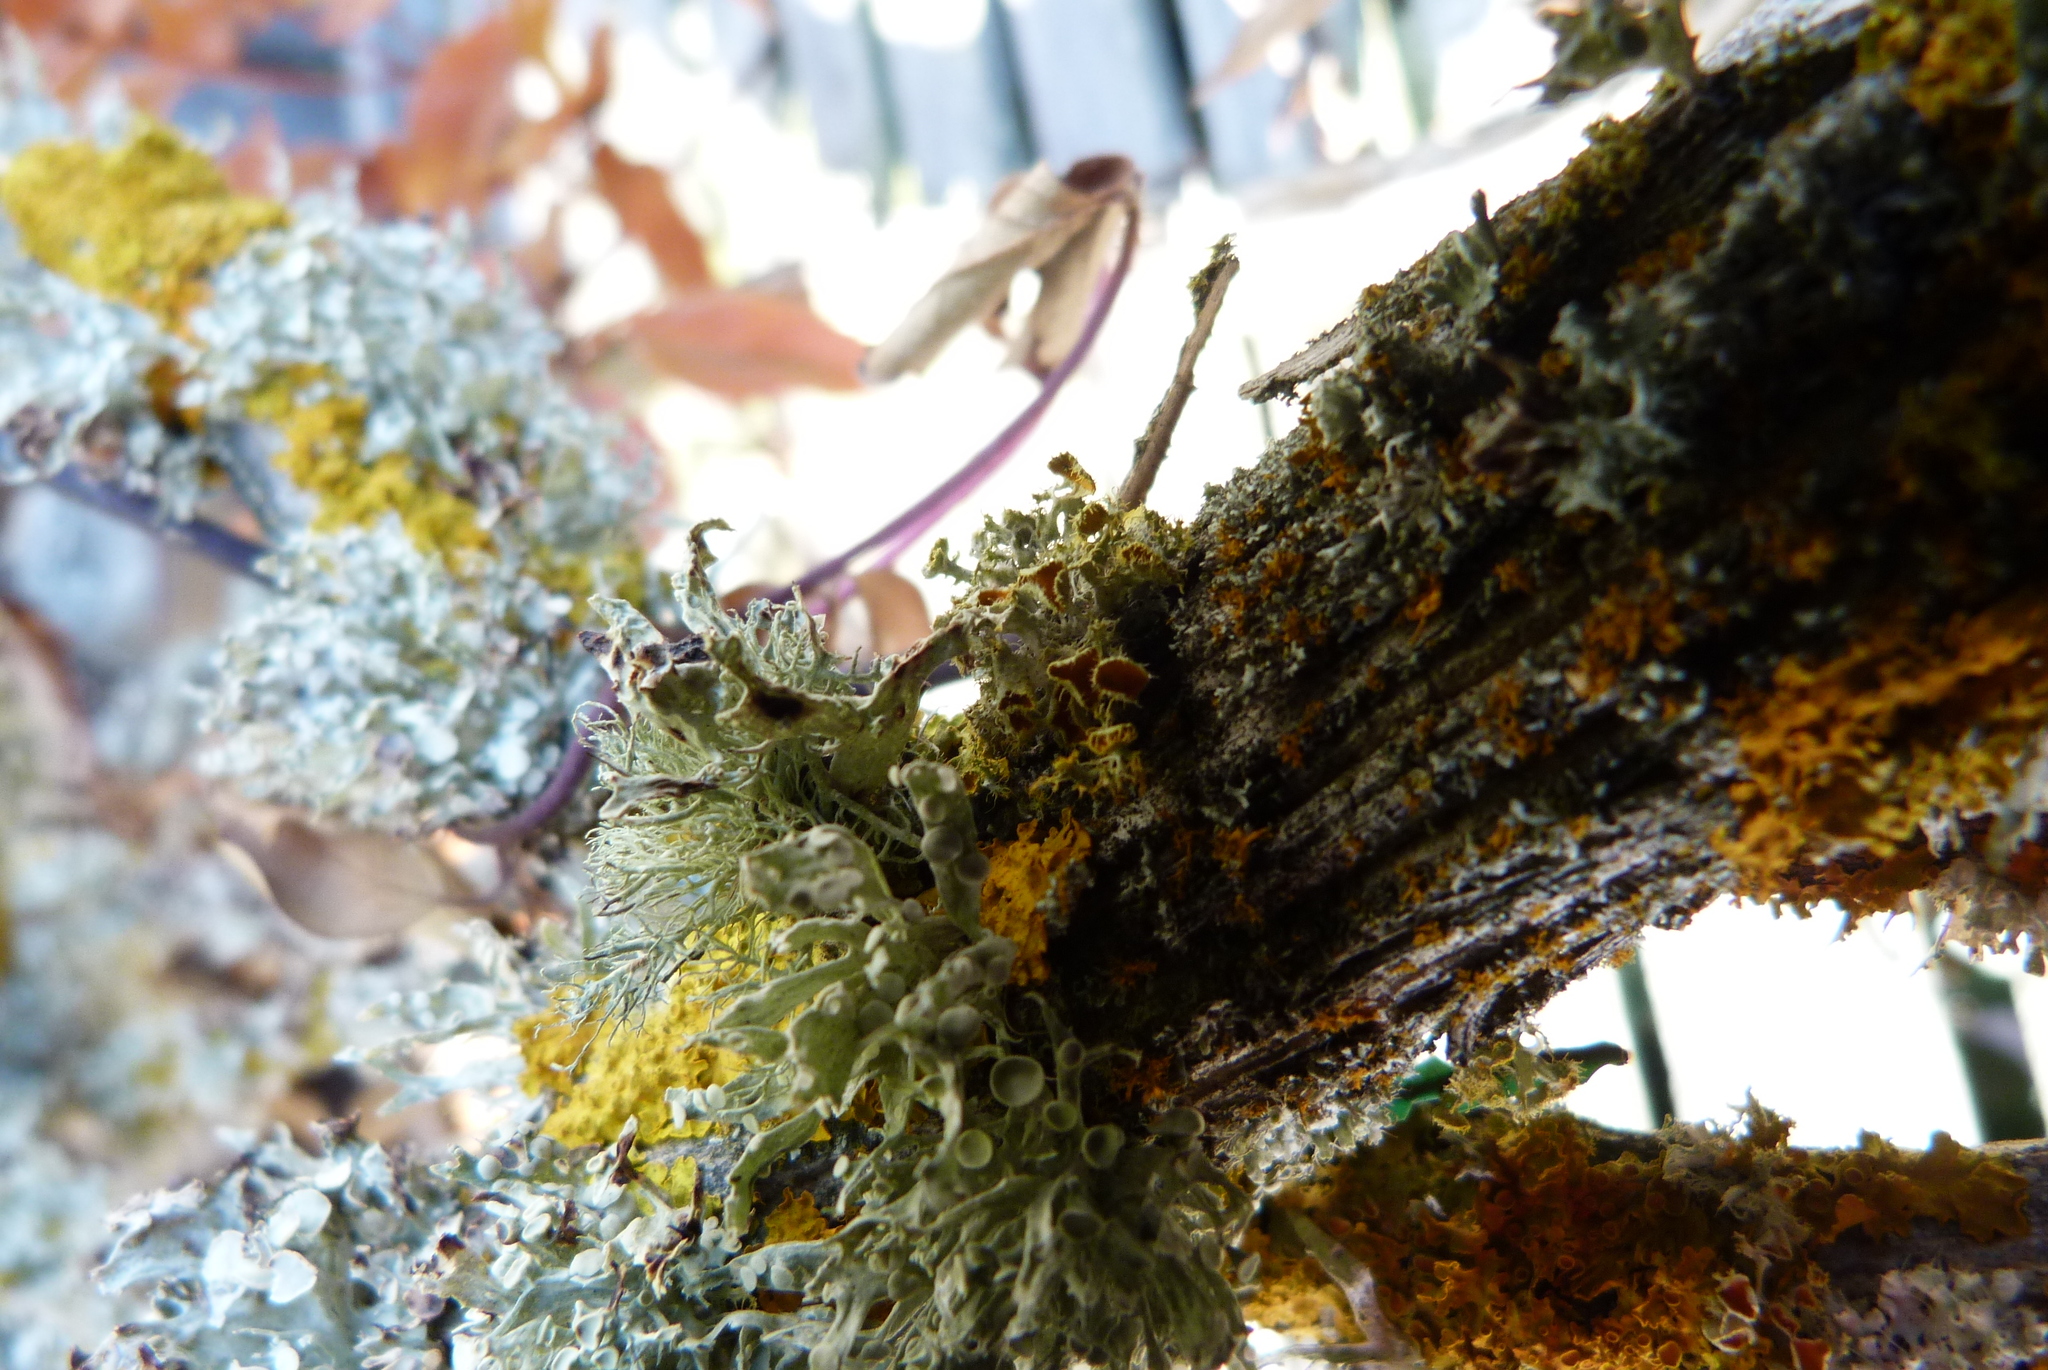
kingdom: Fungi
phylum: Ascomycota
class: Lecanoromycetes
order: Teloschistales
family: Teloschistaceae
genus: Niorma
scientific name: Niorma chrysophthalma
